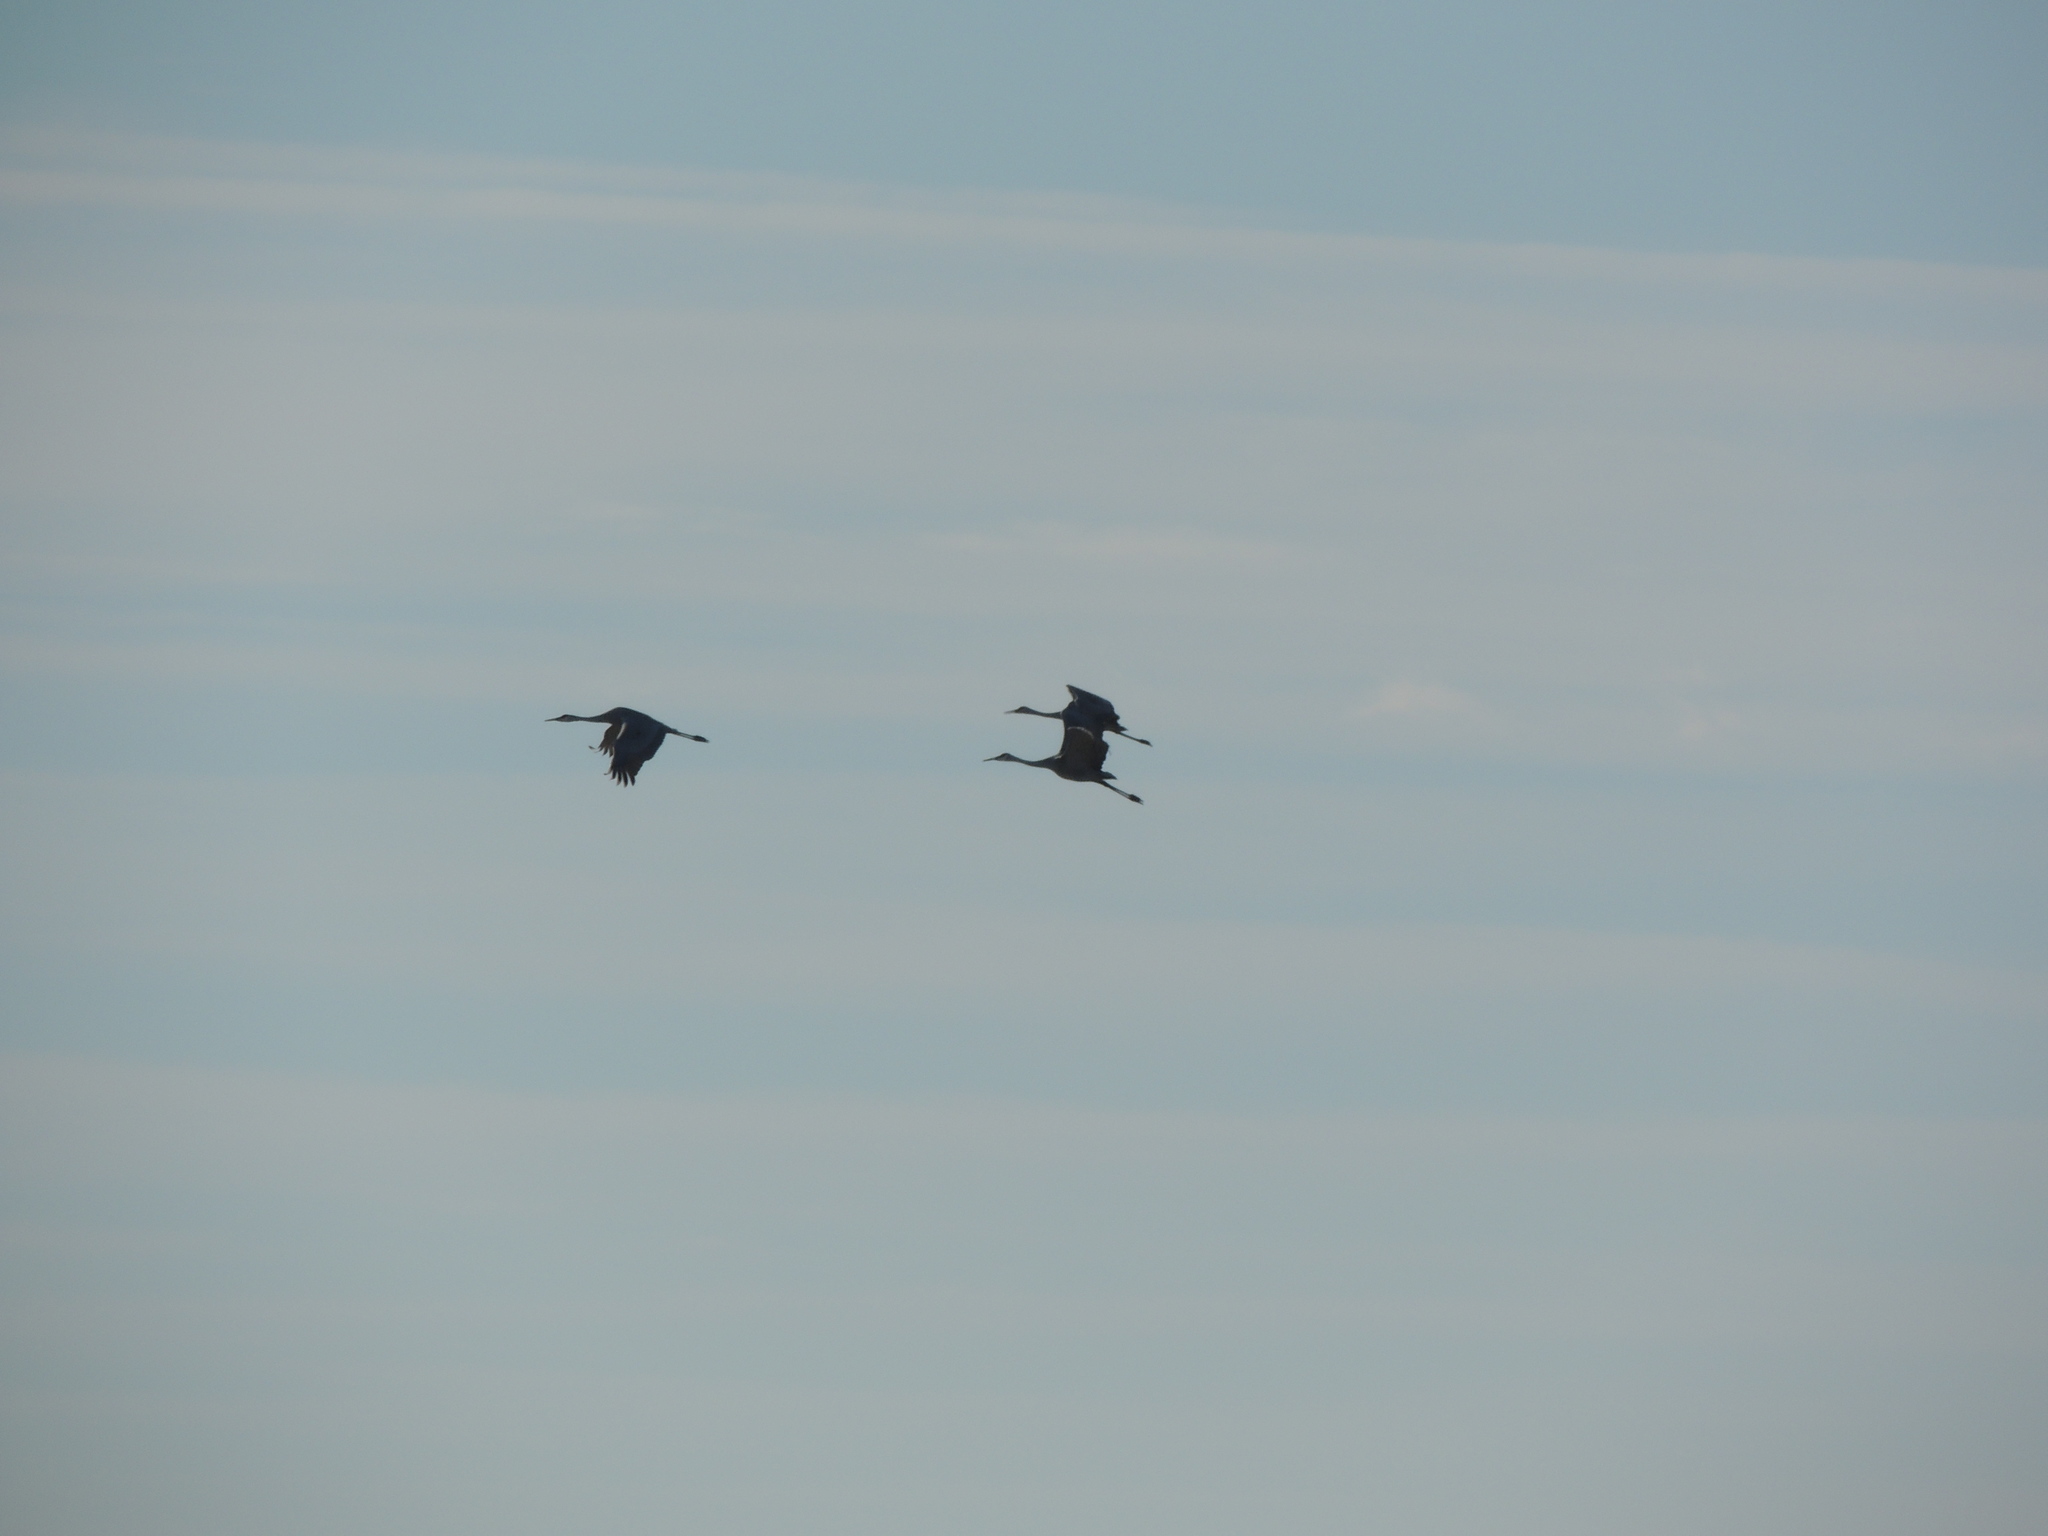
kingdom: Animalia
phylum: Chordata
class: Aves
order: Gruiformes
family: Gruidae
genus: Grus
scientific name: Grus canadensis
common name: Sandhill crane
